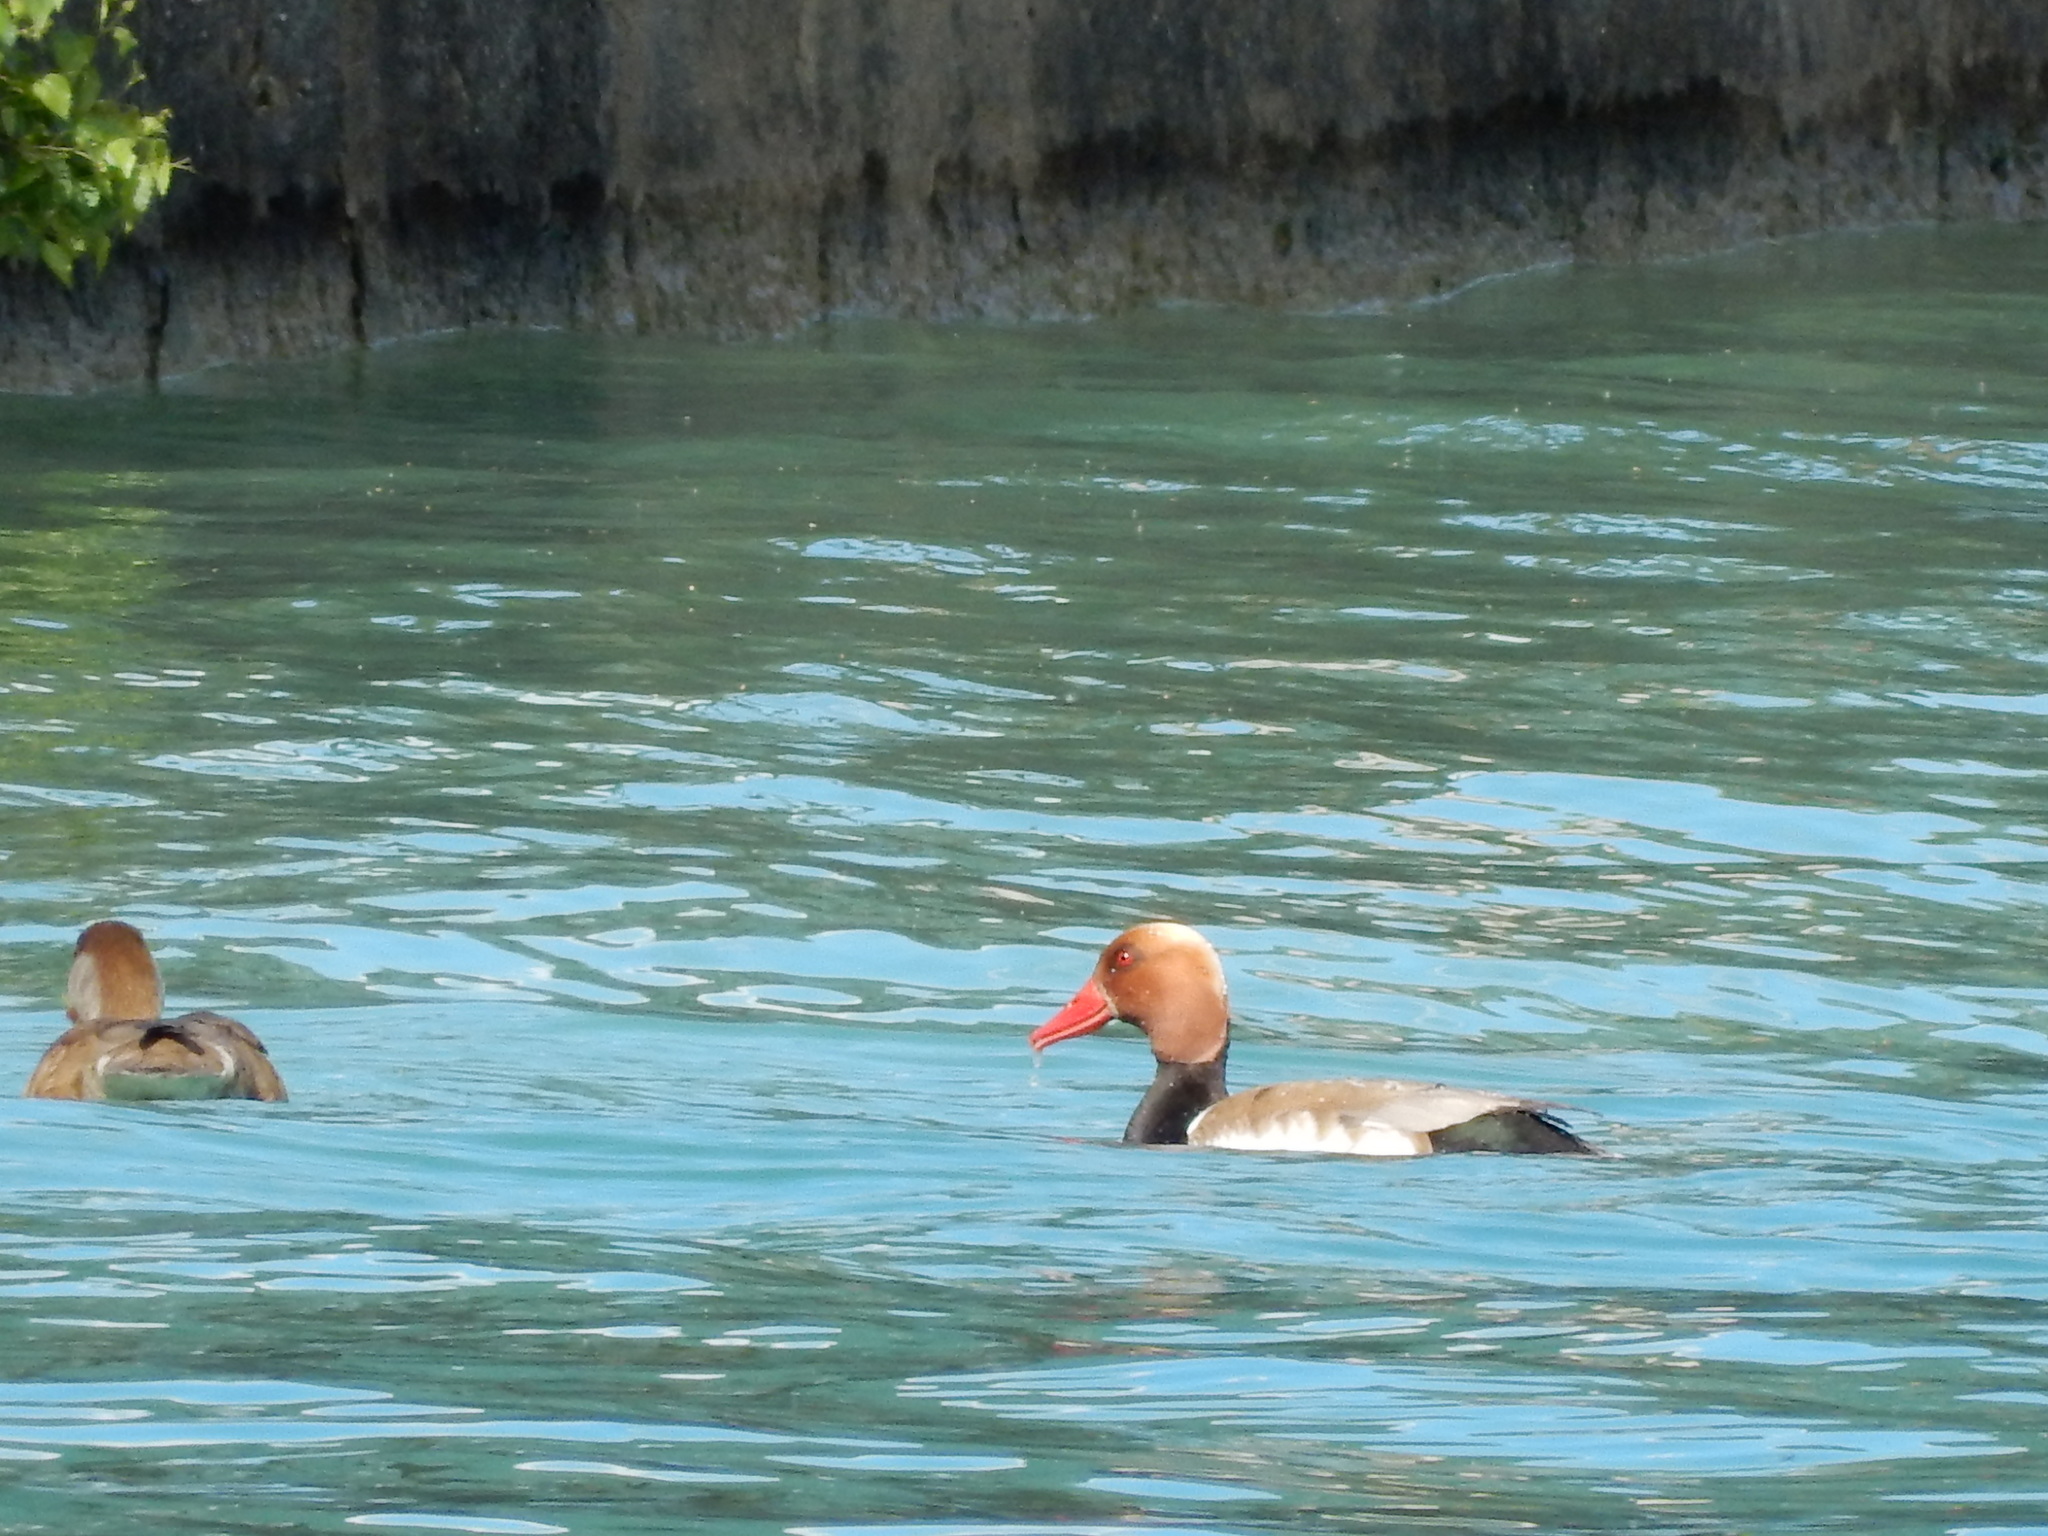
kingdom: Animalia
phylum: Chordata
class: Aves
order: Anseriformes
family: Anatidae
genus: Netta
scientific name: Netta rufina
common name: Red-crested pochard
